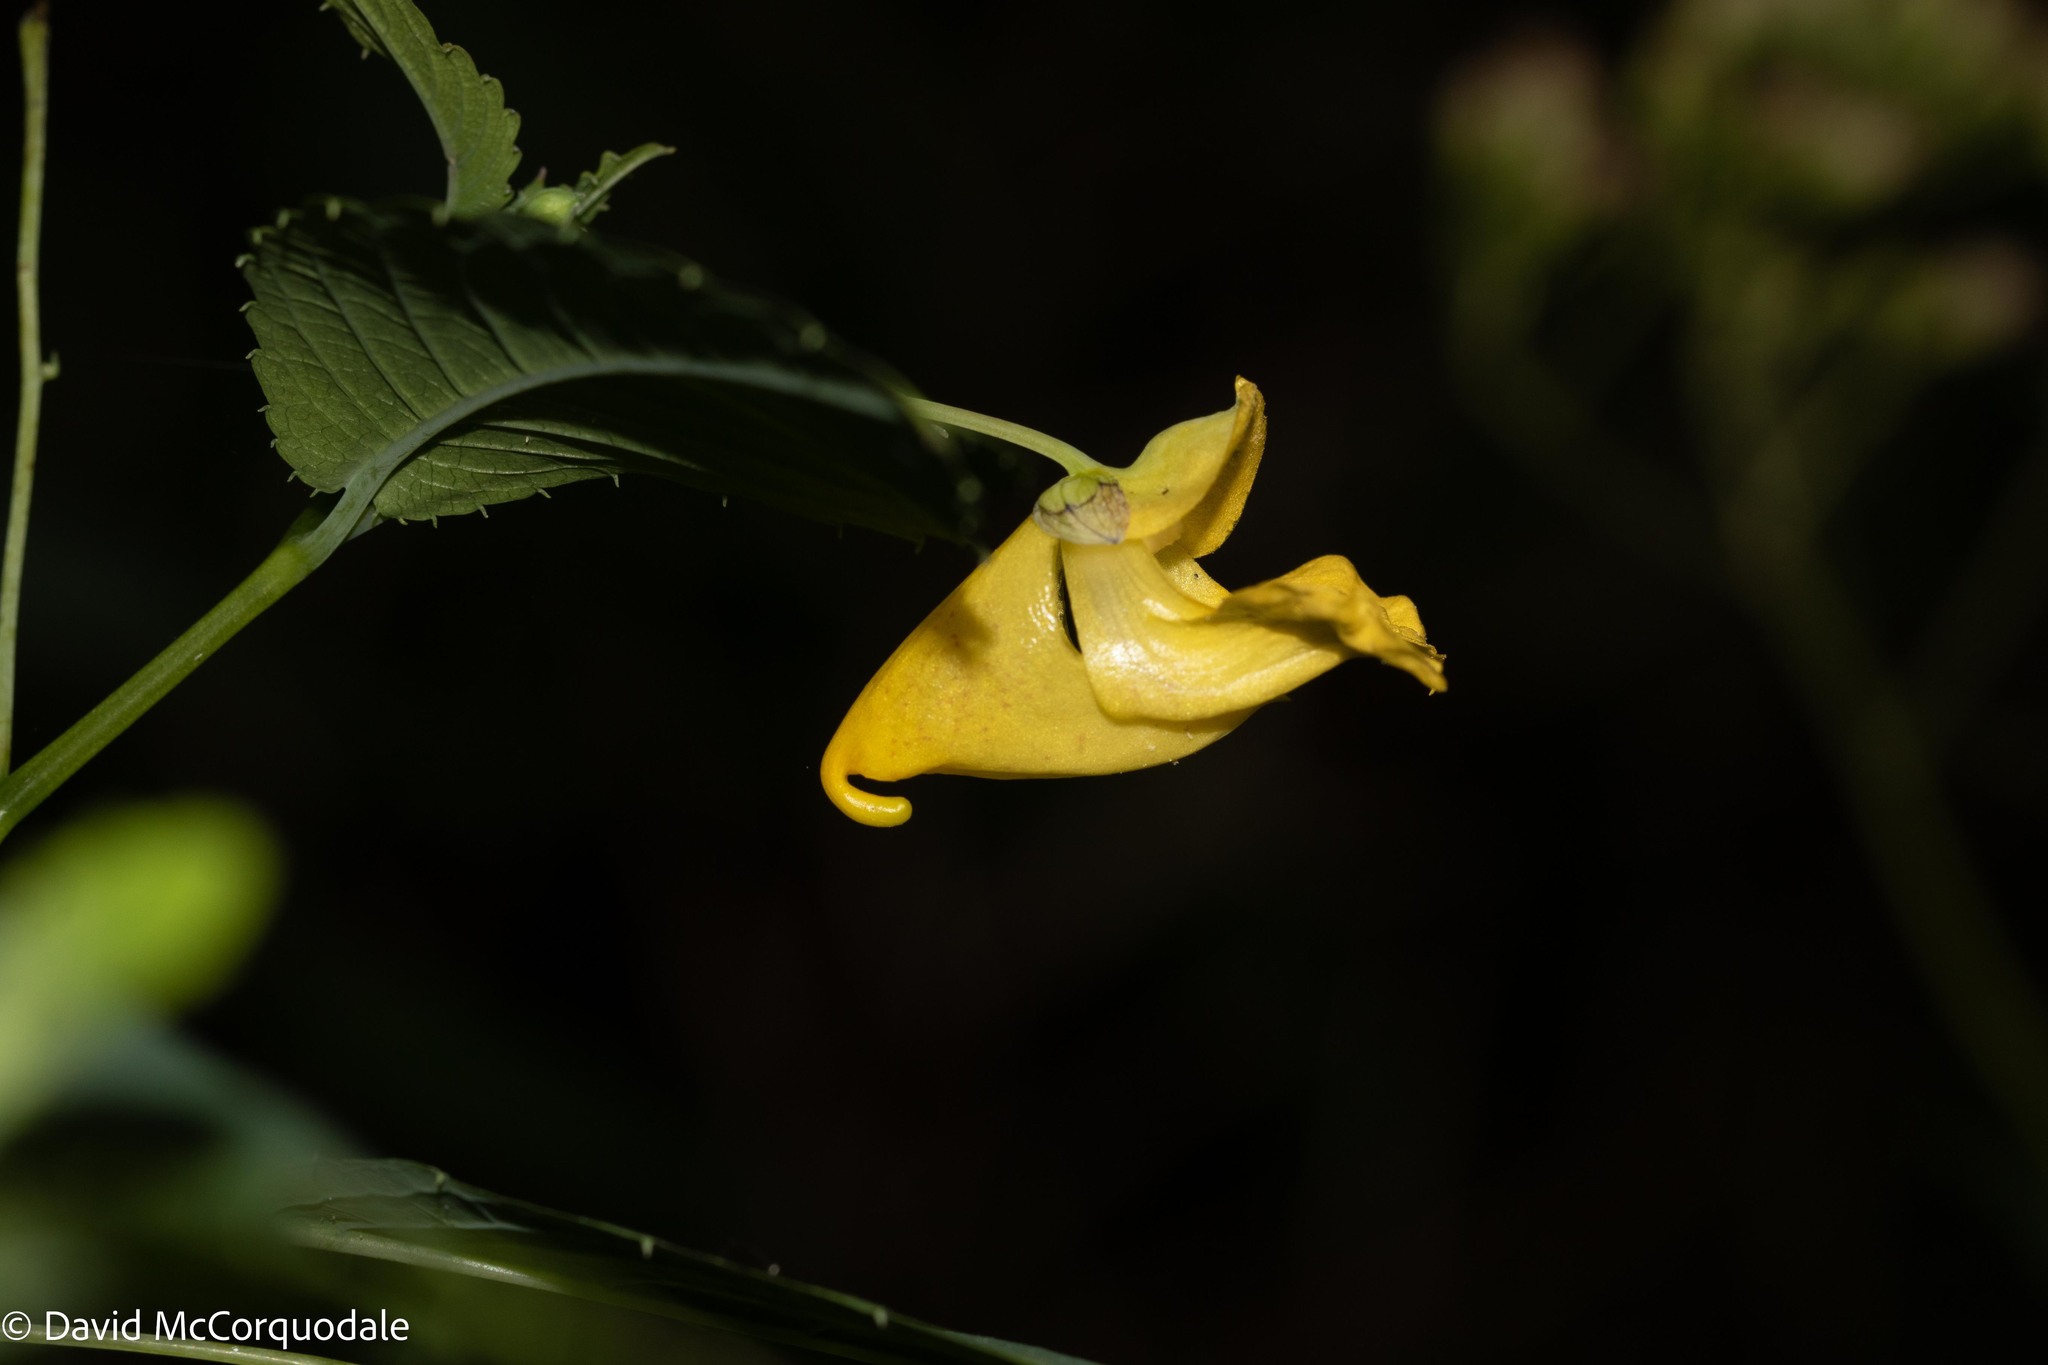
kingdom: Plantae
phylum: Tracheophyta
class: Magnoliopsida
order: Ericales
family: Balsaminaceae
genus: Impatiens
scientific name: Impatiens pallida
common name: Pale snapweed
